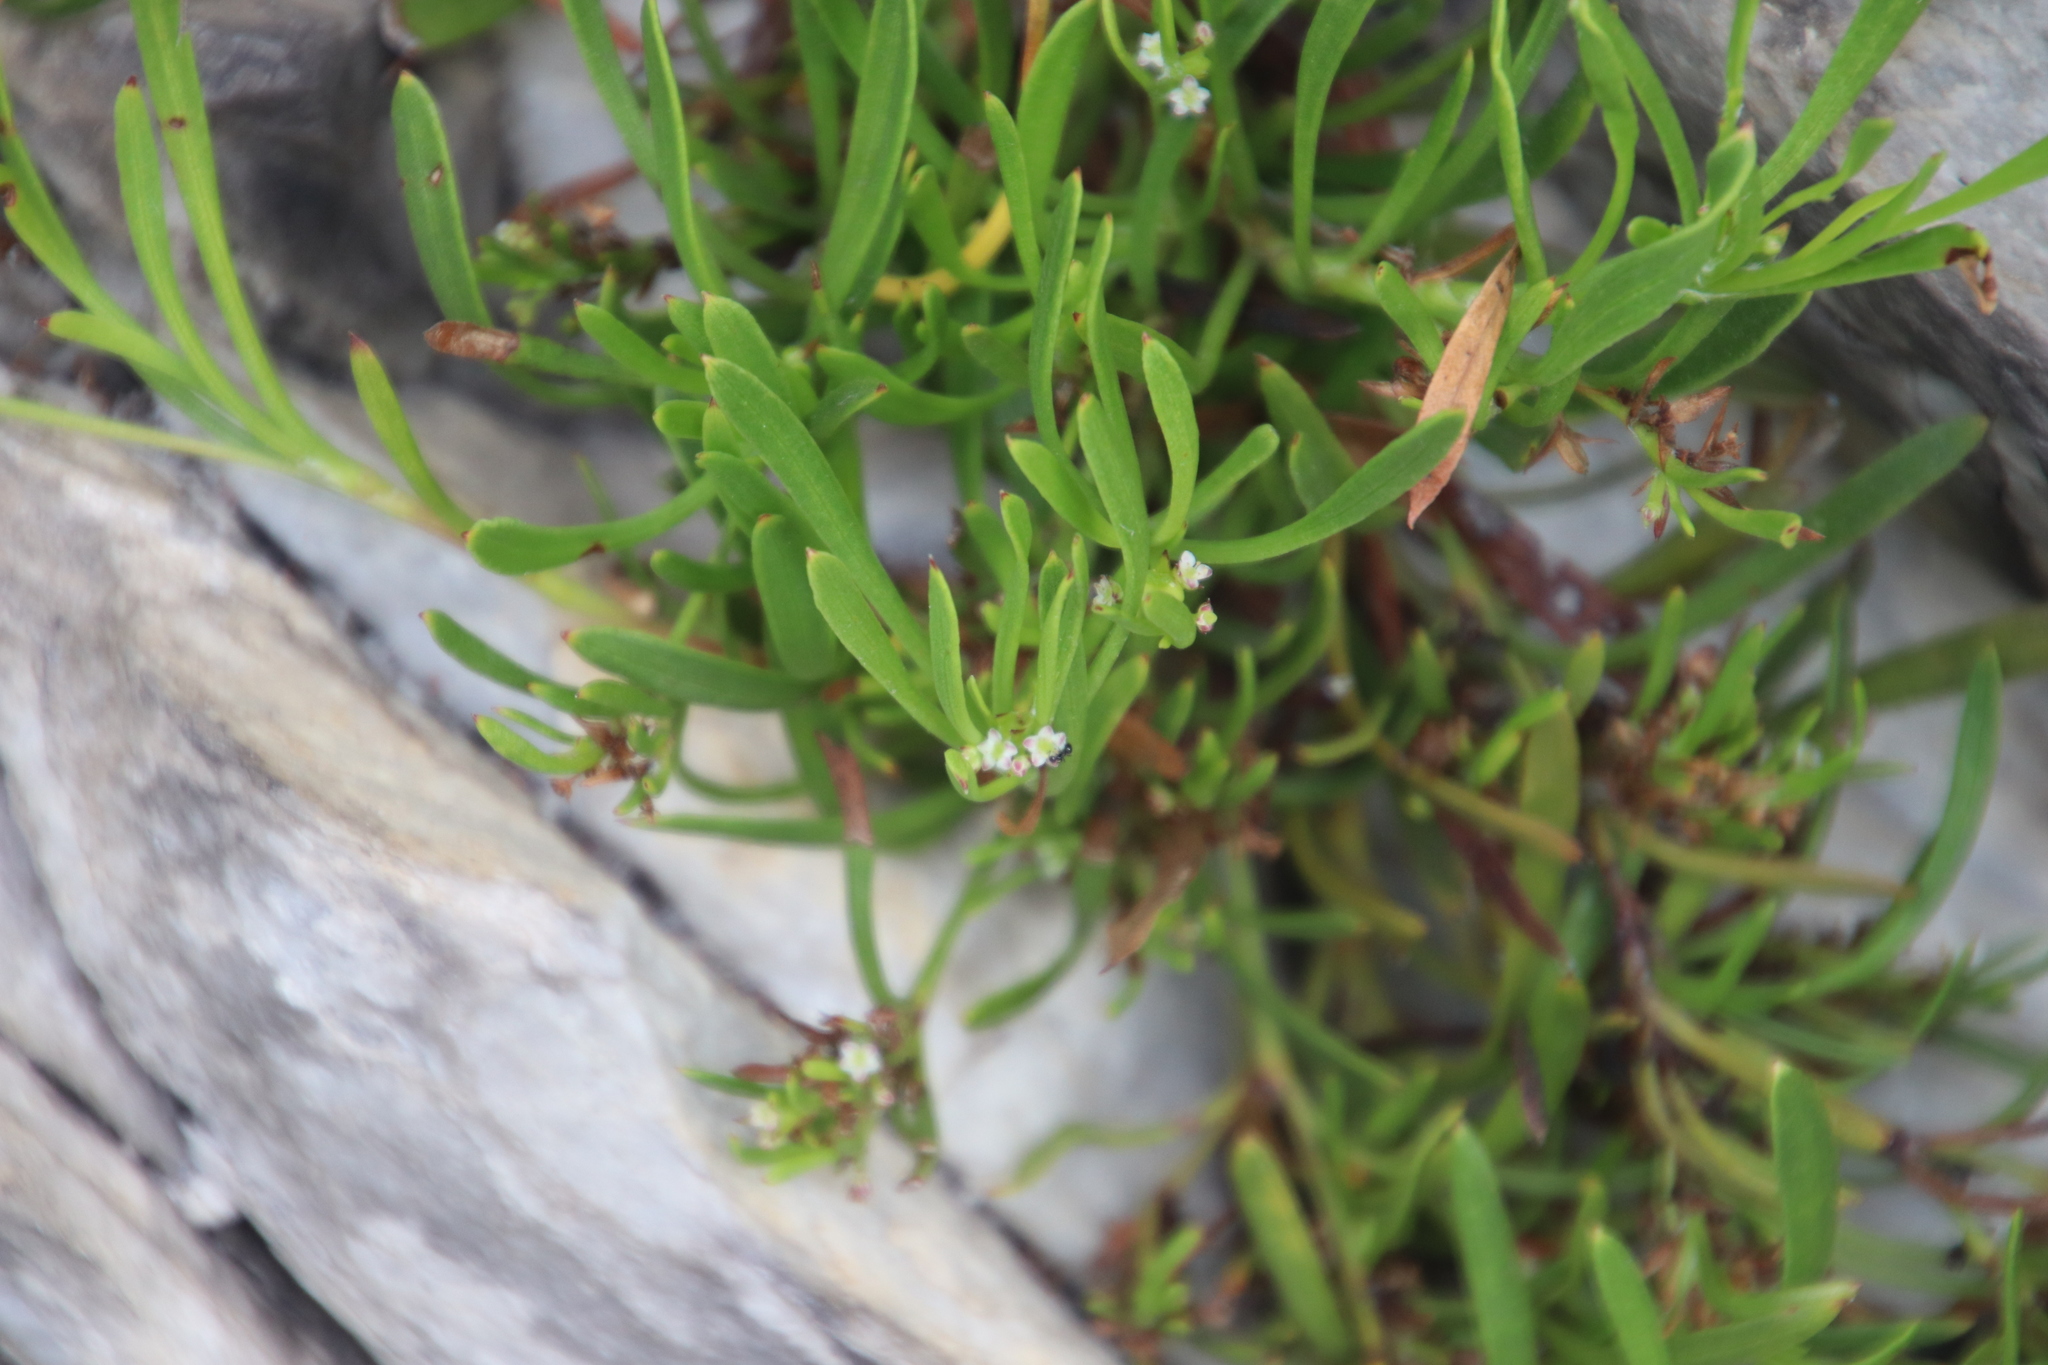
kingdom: Plantae
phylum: Tracheophyta
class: Magnoliopsida
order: Apiales
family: Apiaceae
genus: Centella
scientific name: Centella rupestris
